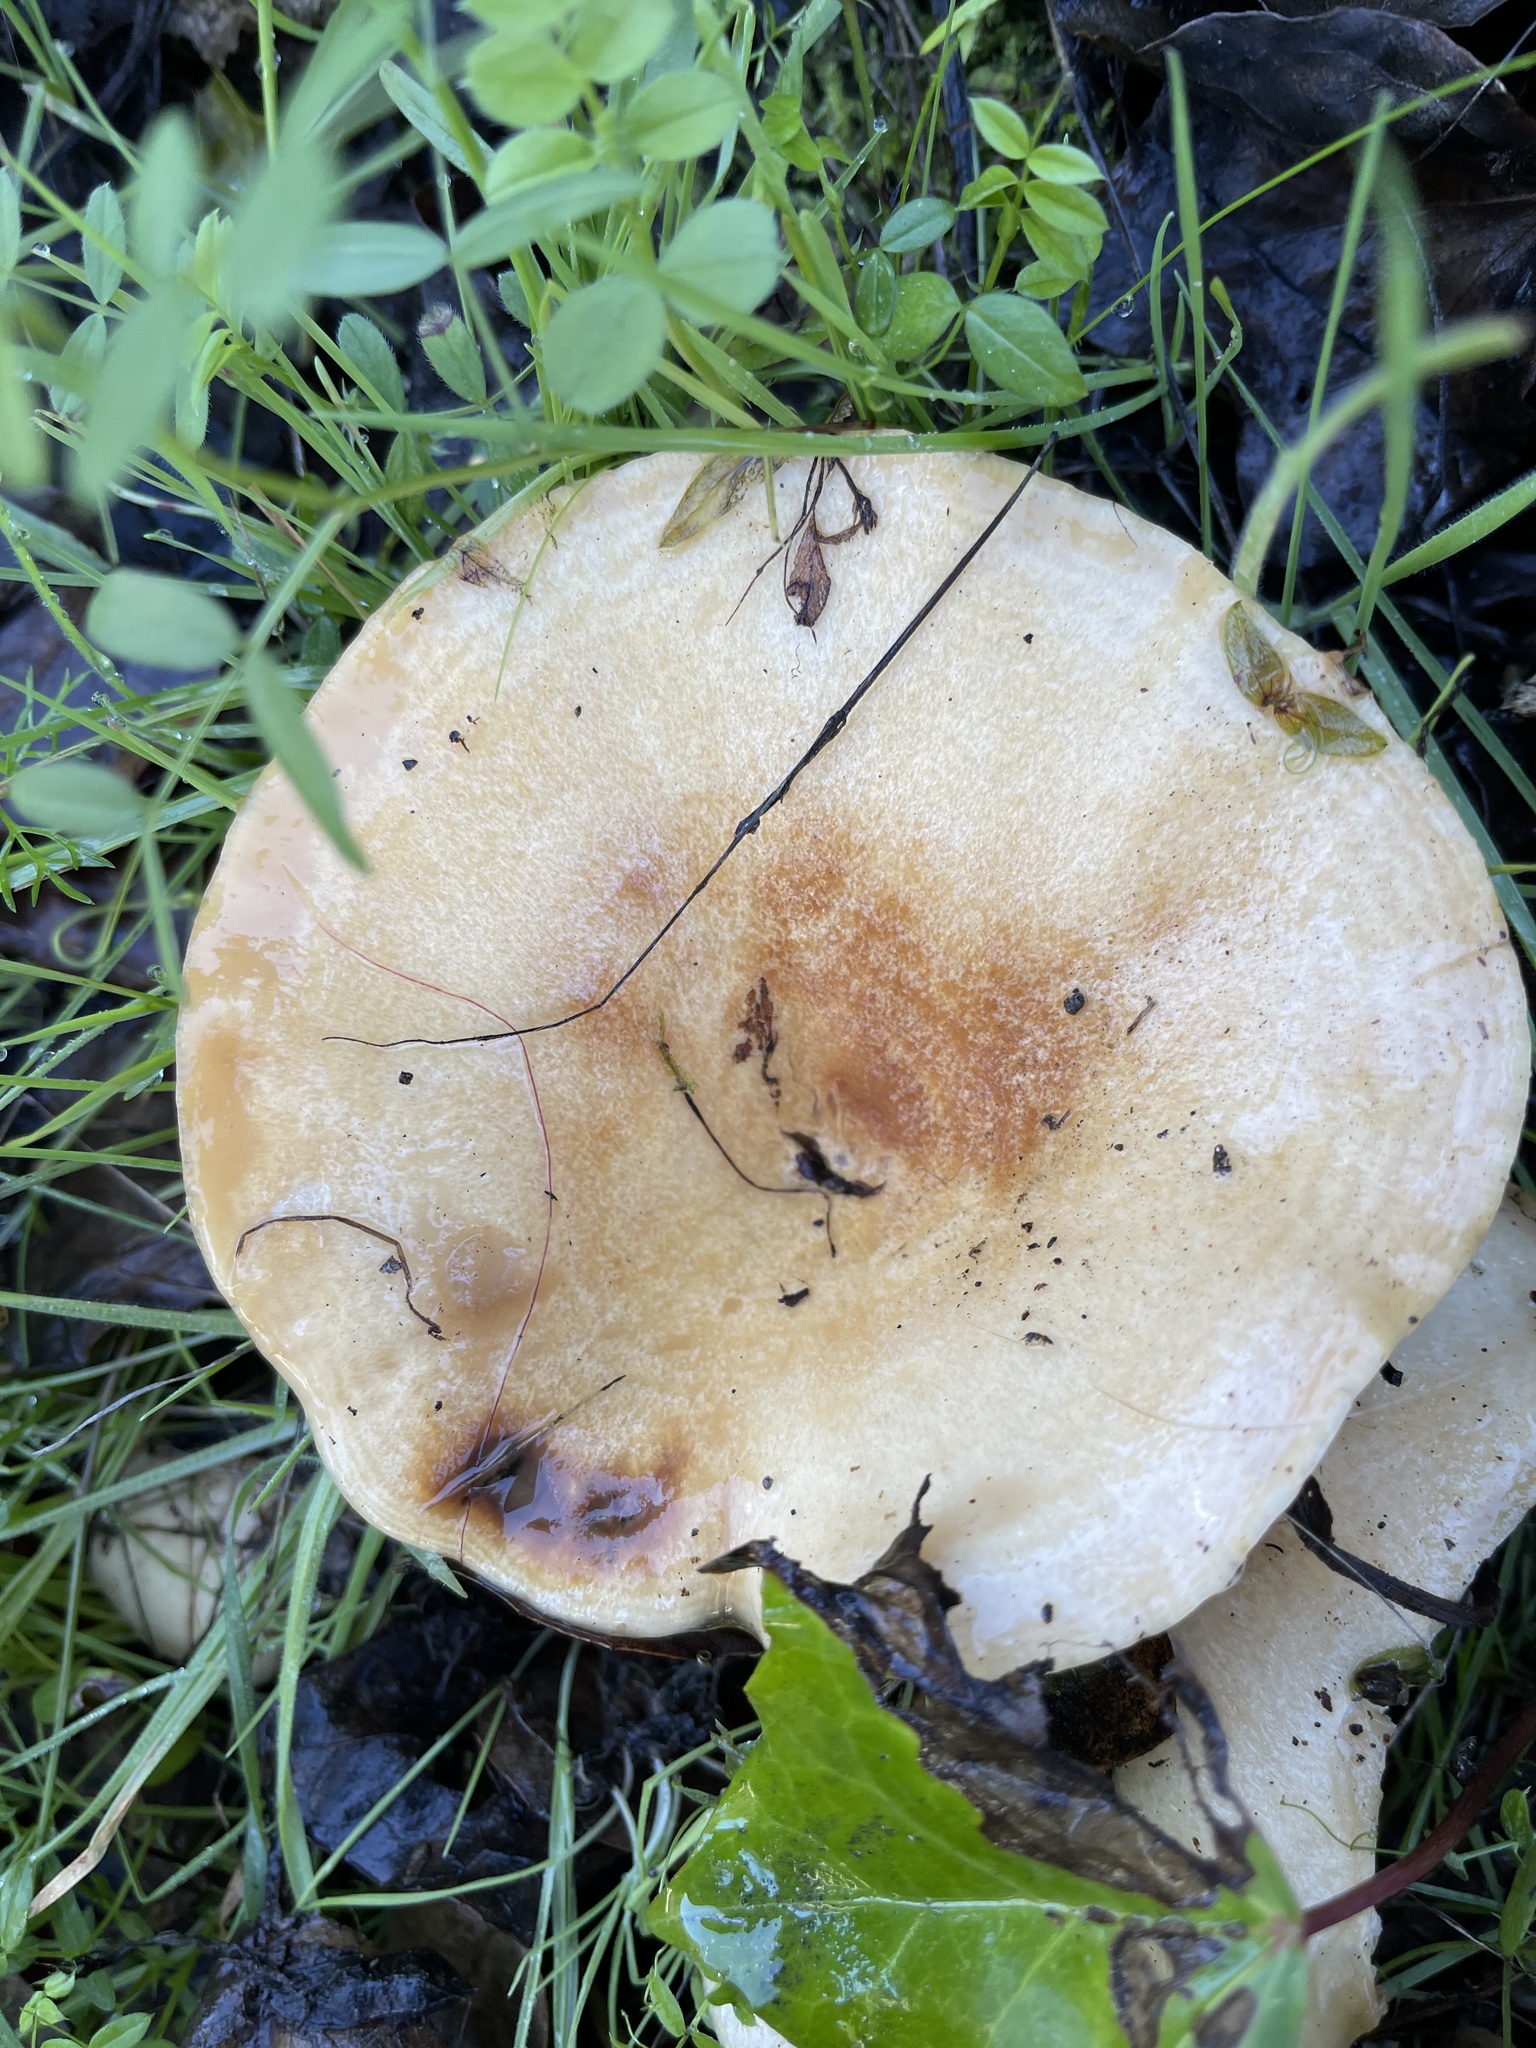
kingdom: Fungi
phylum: Basidiomycota
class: Agaricomycetes
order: Russulales
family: Russulaceae
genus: Lactarius
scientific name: Lactarius alnicola
